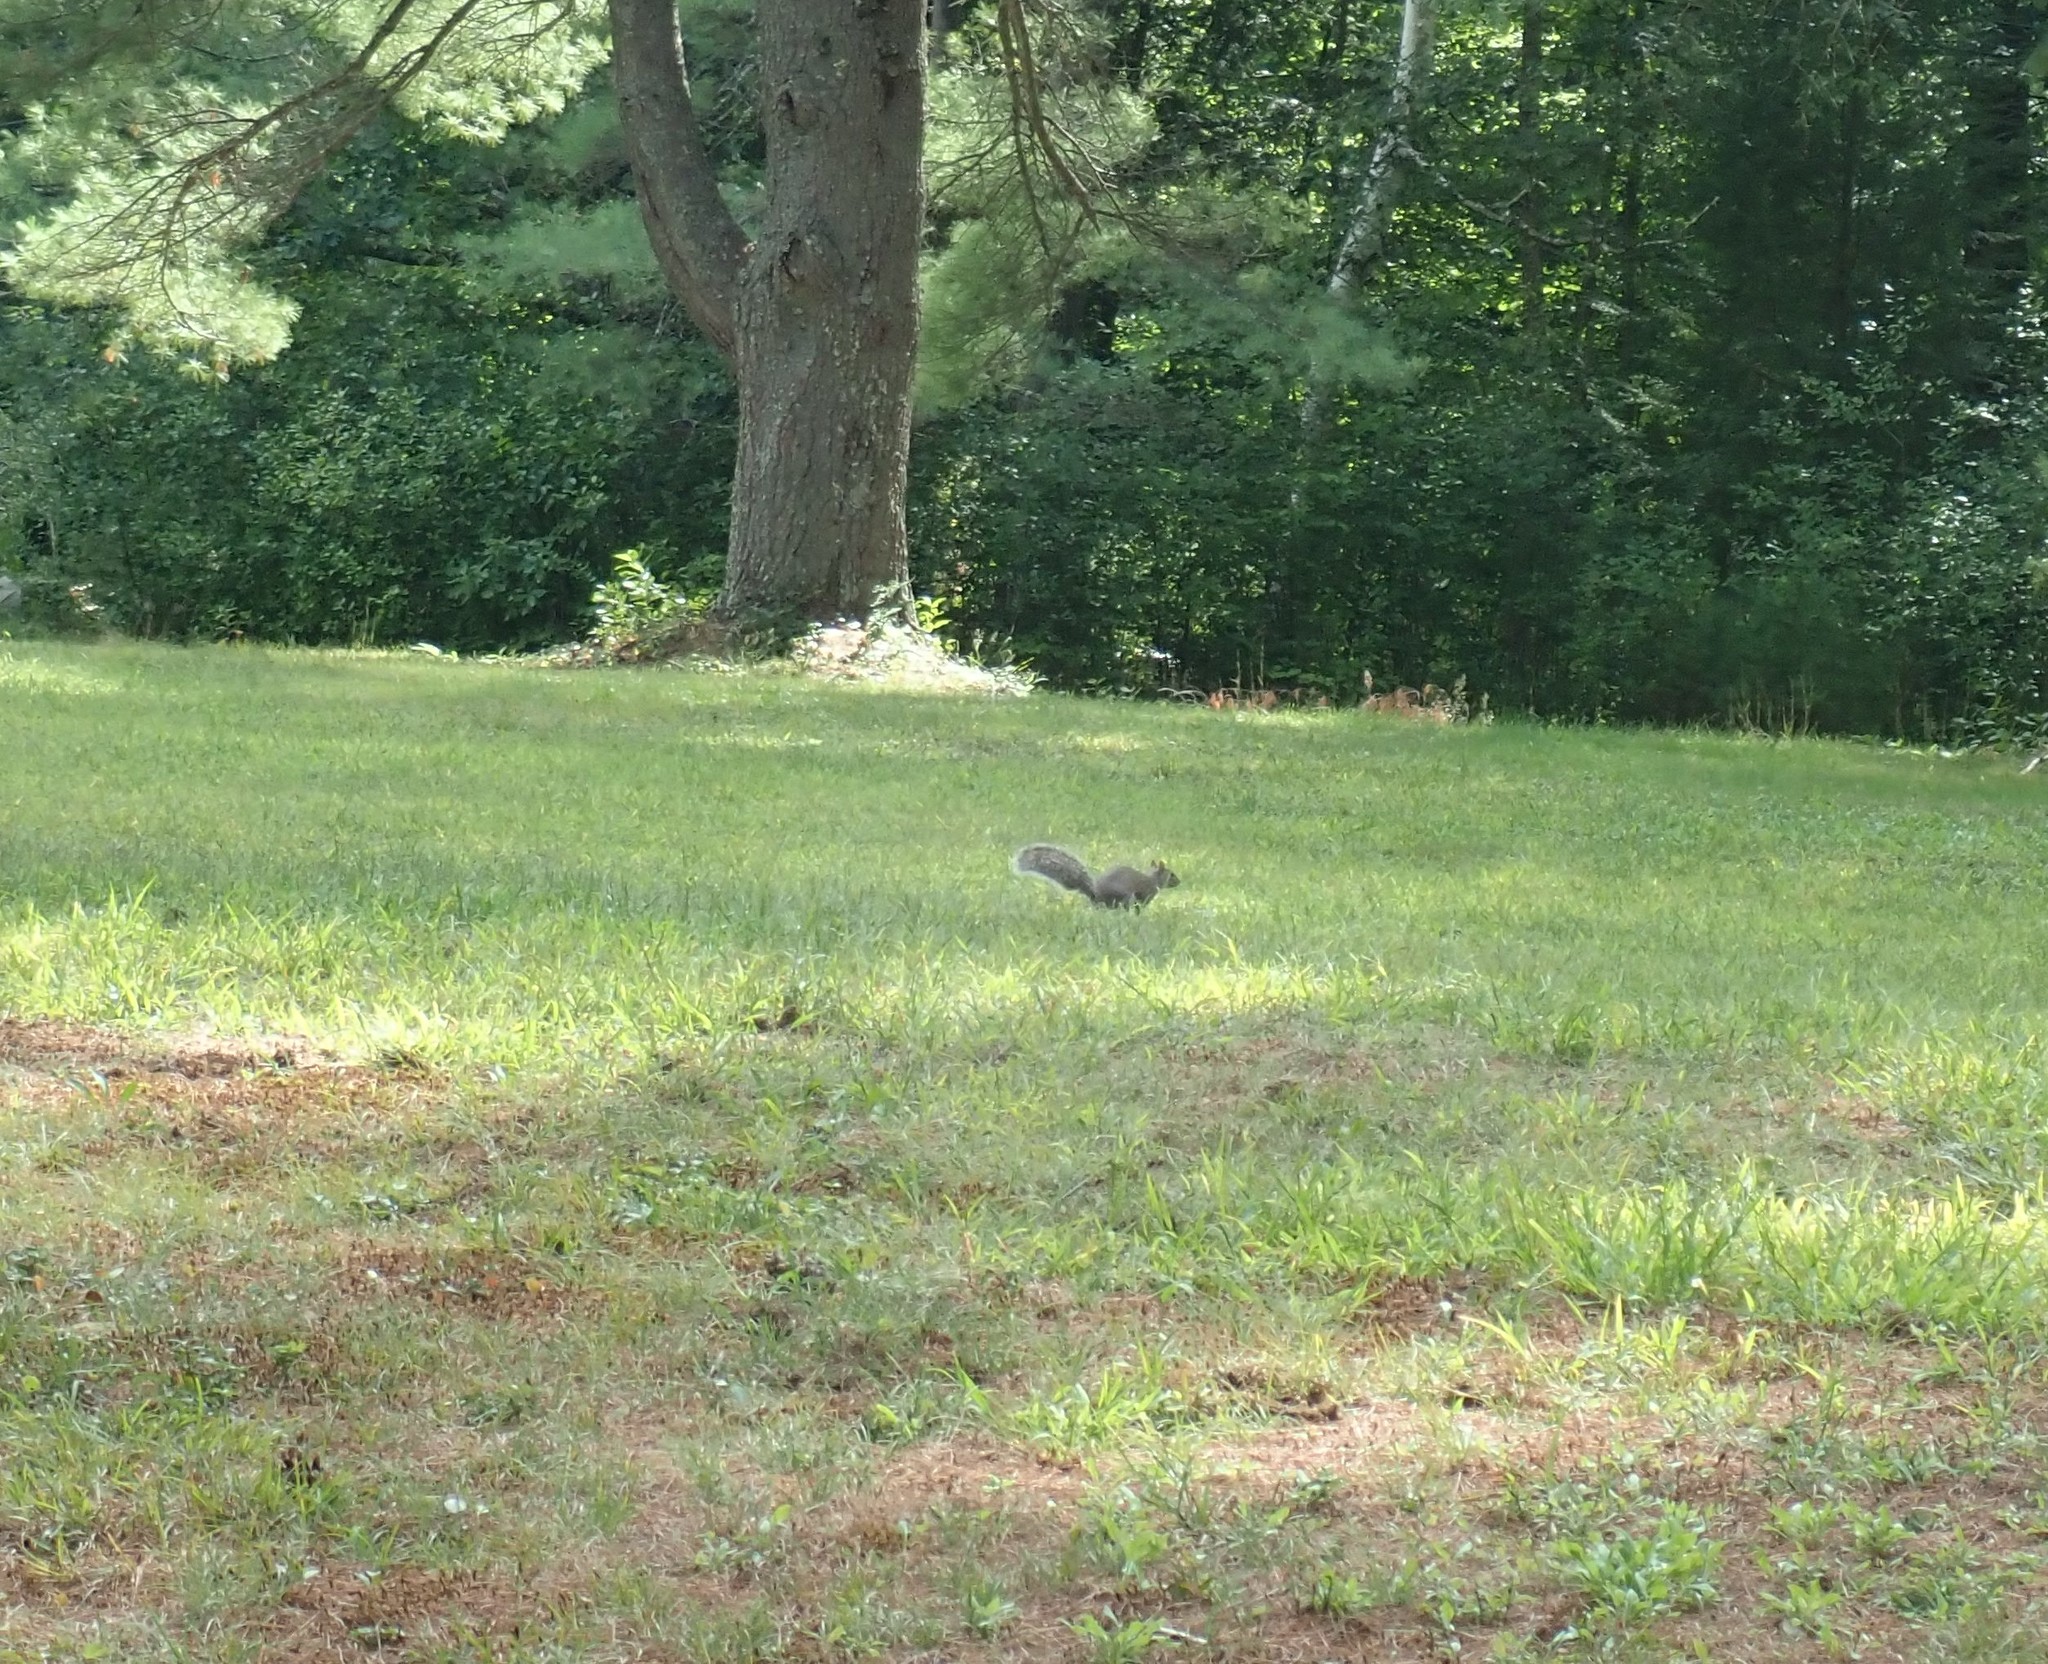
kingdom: Animalia
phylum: Chordata
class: Mammalia
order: Rodentia
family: Sciuridae
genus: Sciurus
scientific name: Sciurus carolinensis
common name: Eastern gray squirrel
